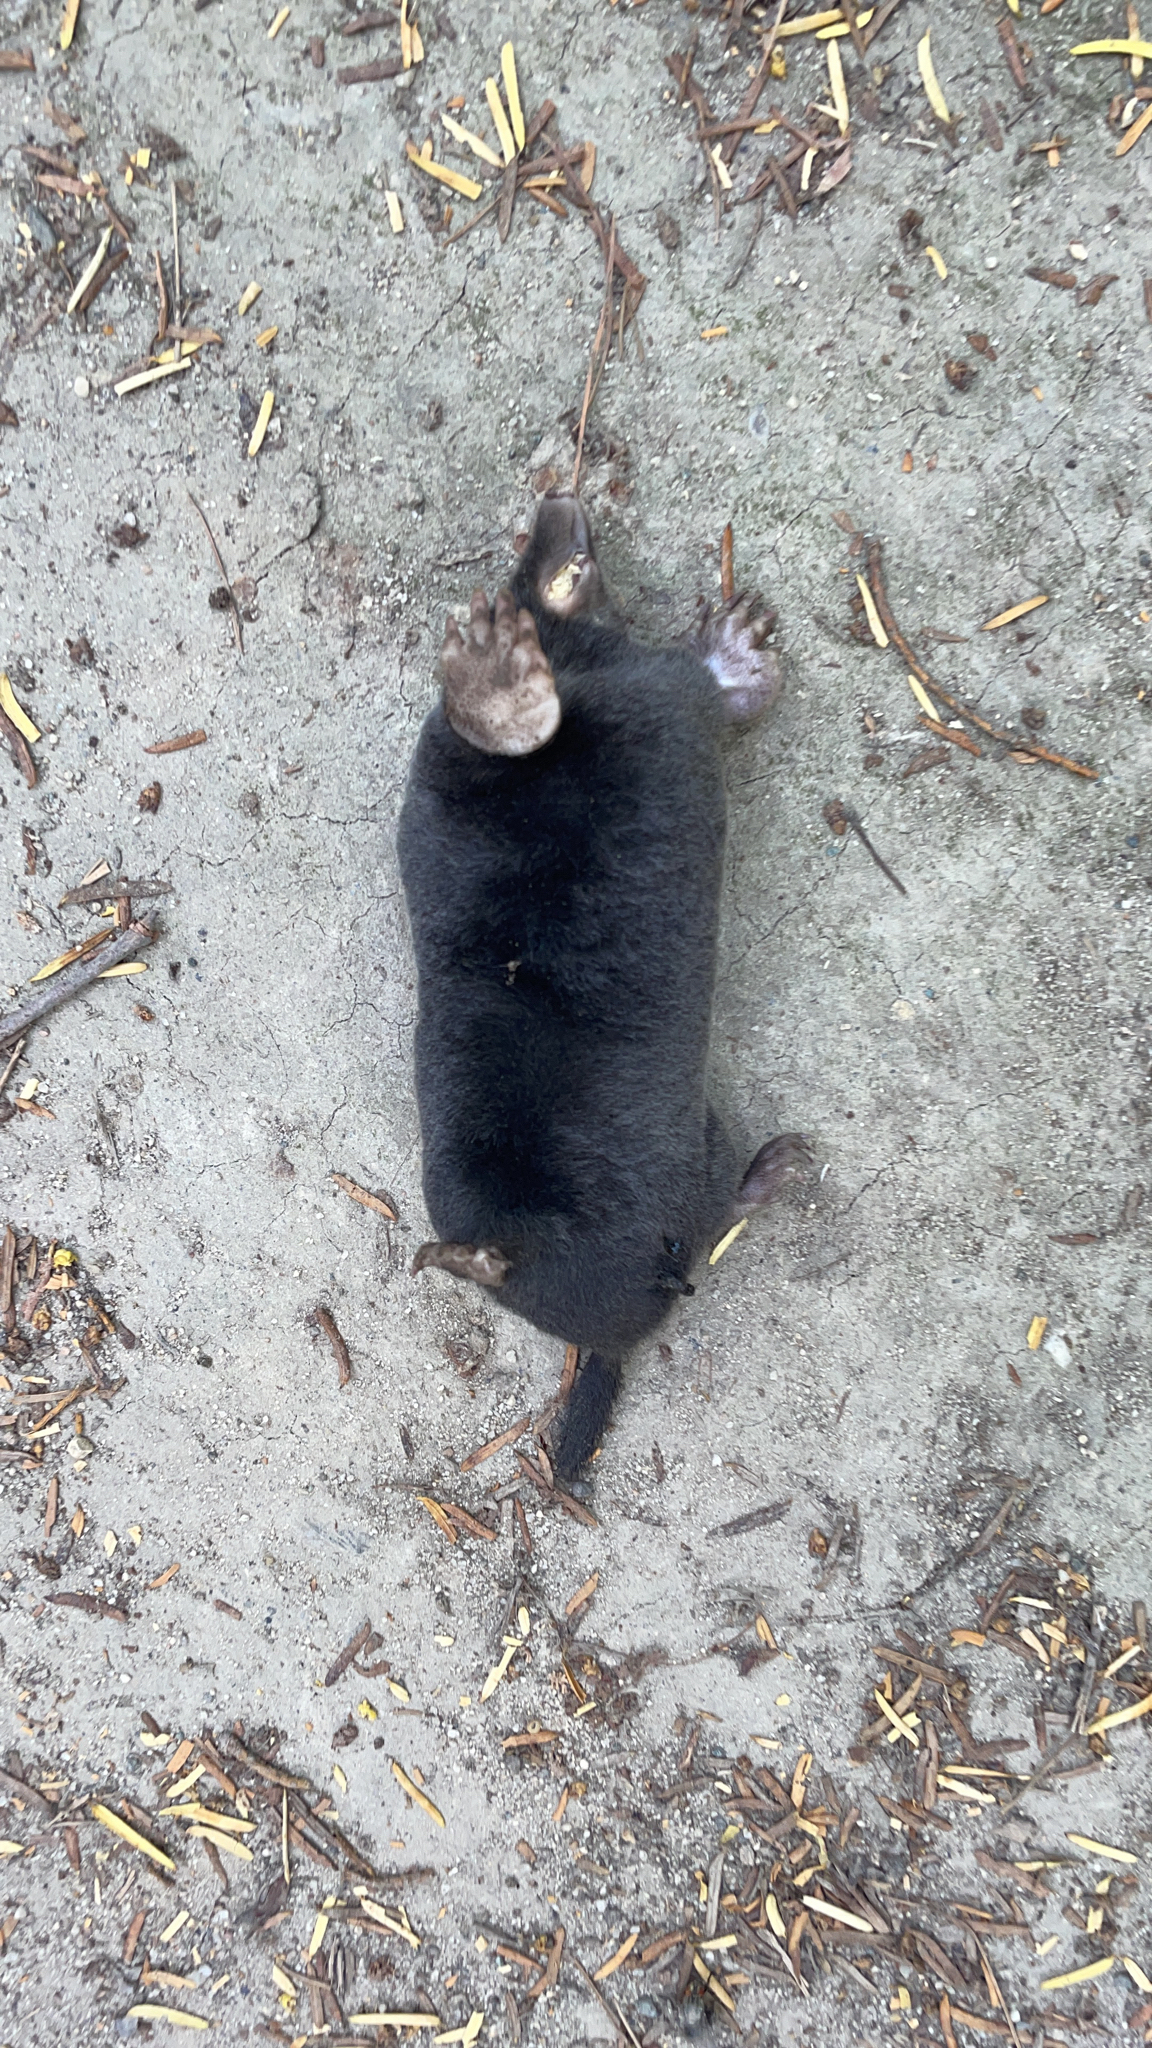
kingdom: Animalia
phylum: Chordata
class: Mammalia
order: Soricomorpha
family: Talpidae
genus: Talpa
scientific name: Talpa europaea
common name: European mole
